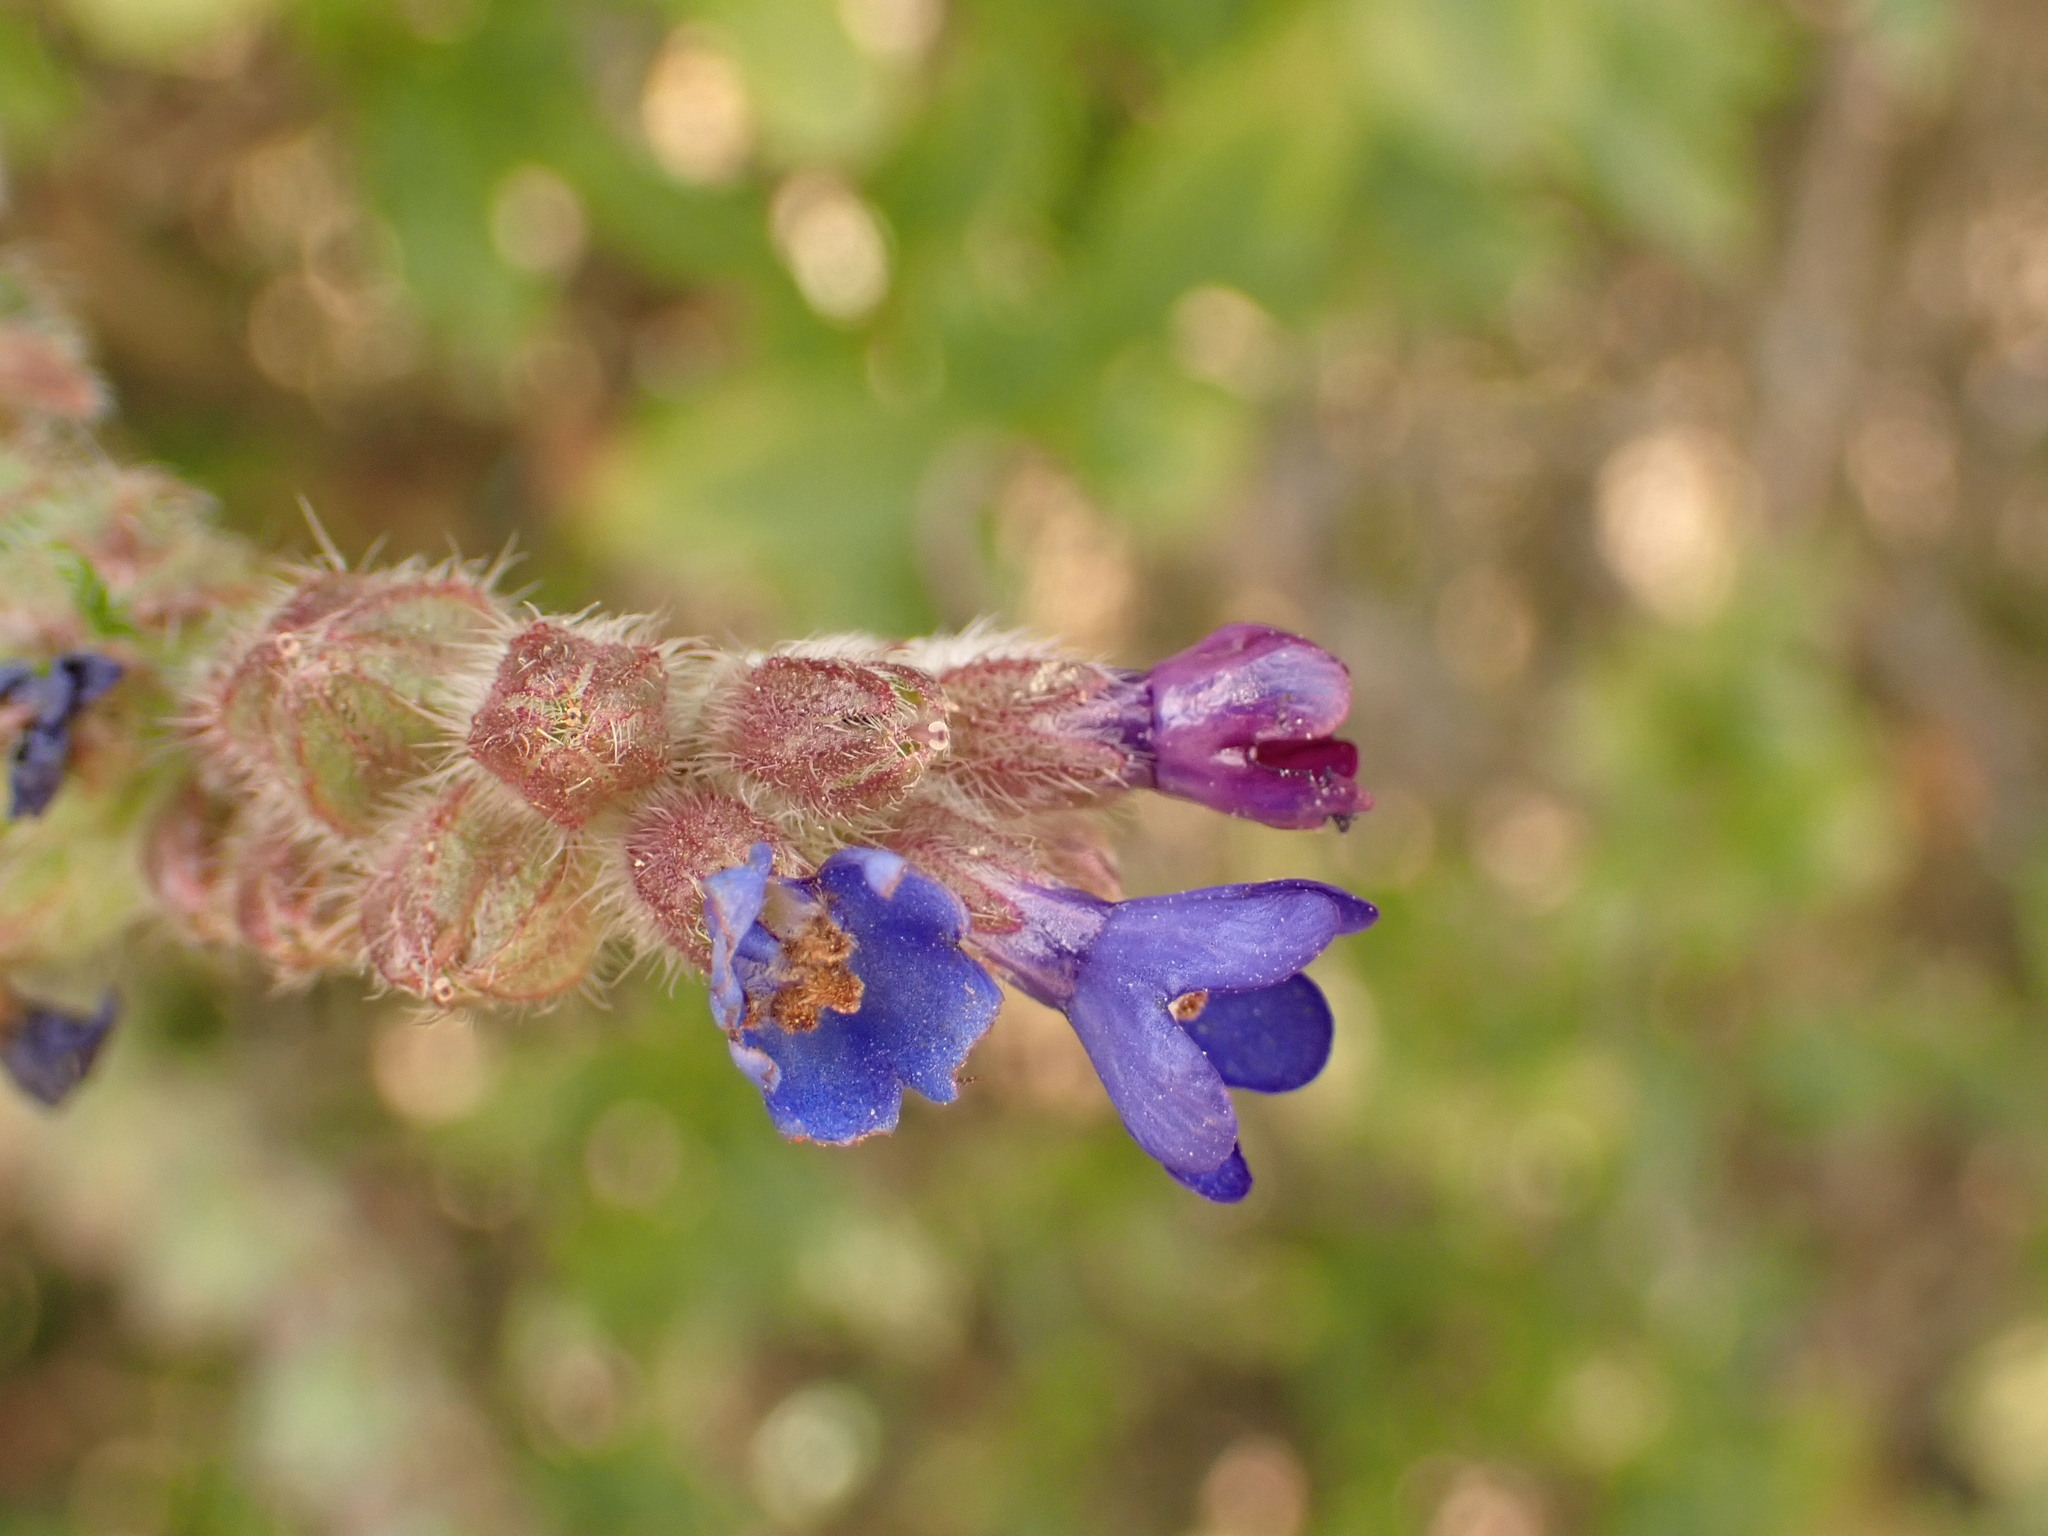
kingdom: Plantae
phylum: Tracheophyta
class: Magnoliopsida
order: Boraginales
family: Boraginaceae
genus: Anchusa
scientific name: Anchusa officinalis
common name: Alkanet
